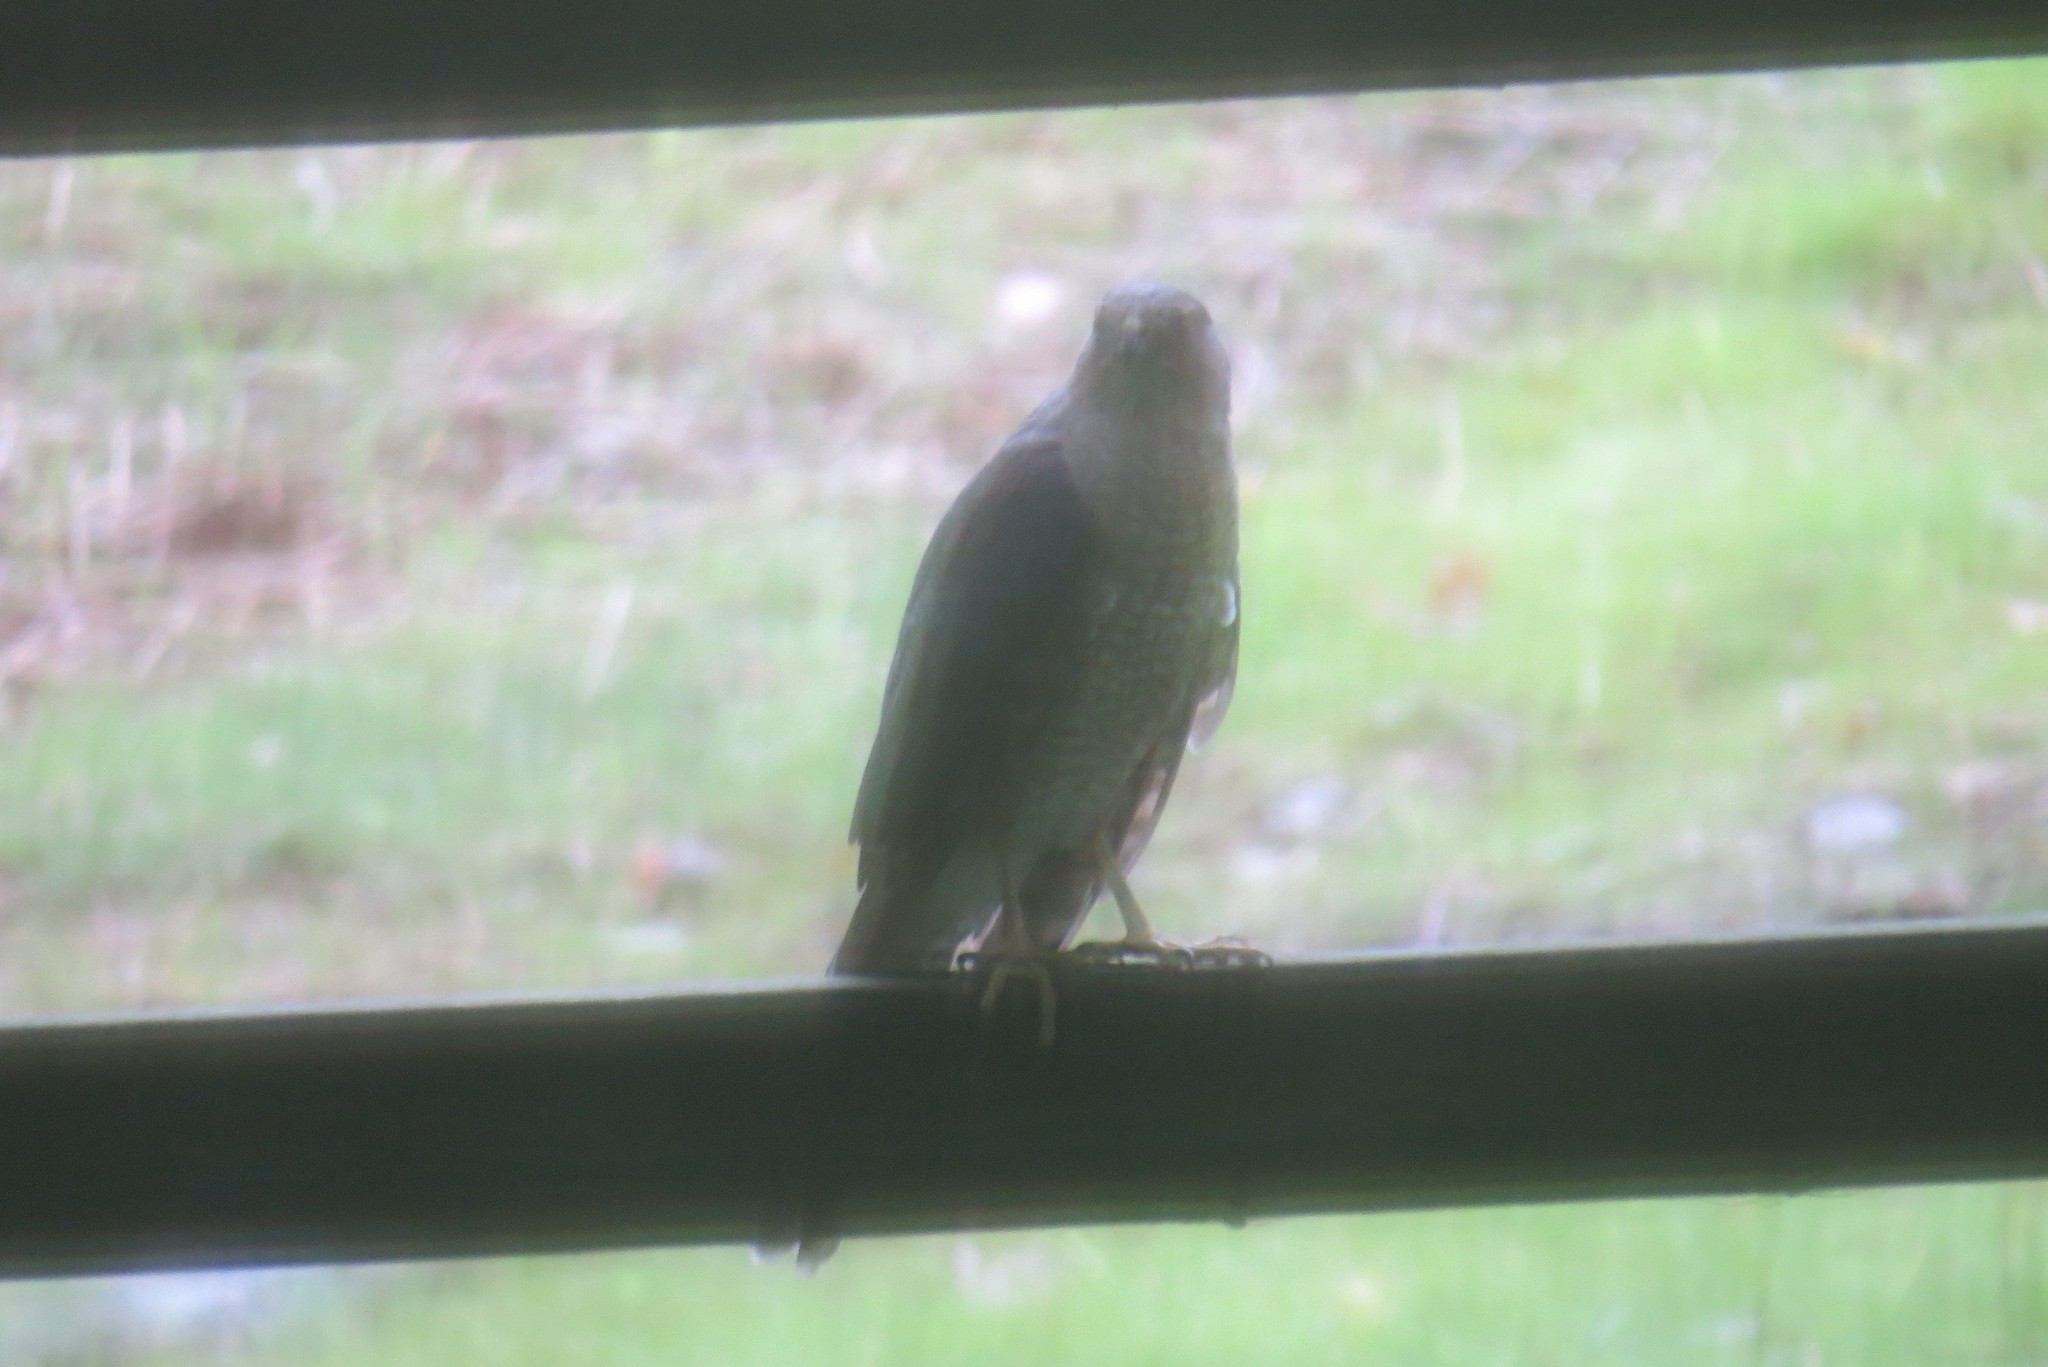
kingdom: Animalia
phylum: Chordata
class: Aves
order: Accipitriformes
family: Accipitridae
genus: Accipiter
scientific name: Accipiter cooperii
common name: Cooper's hawk
